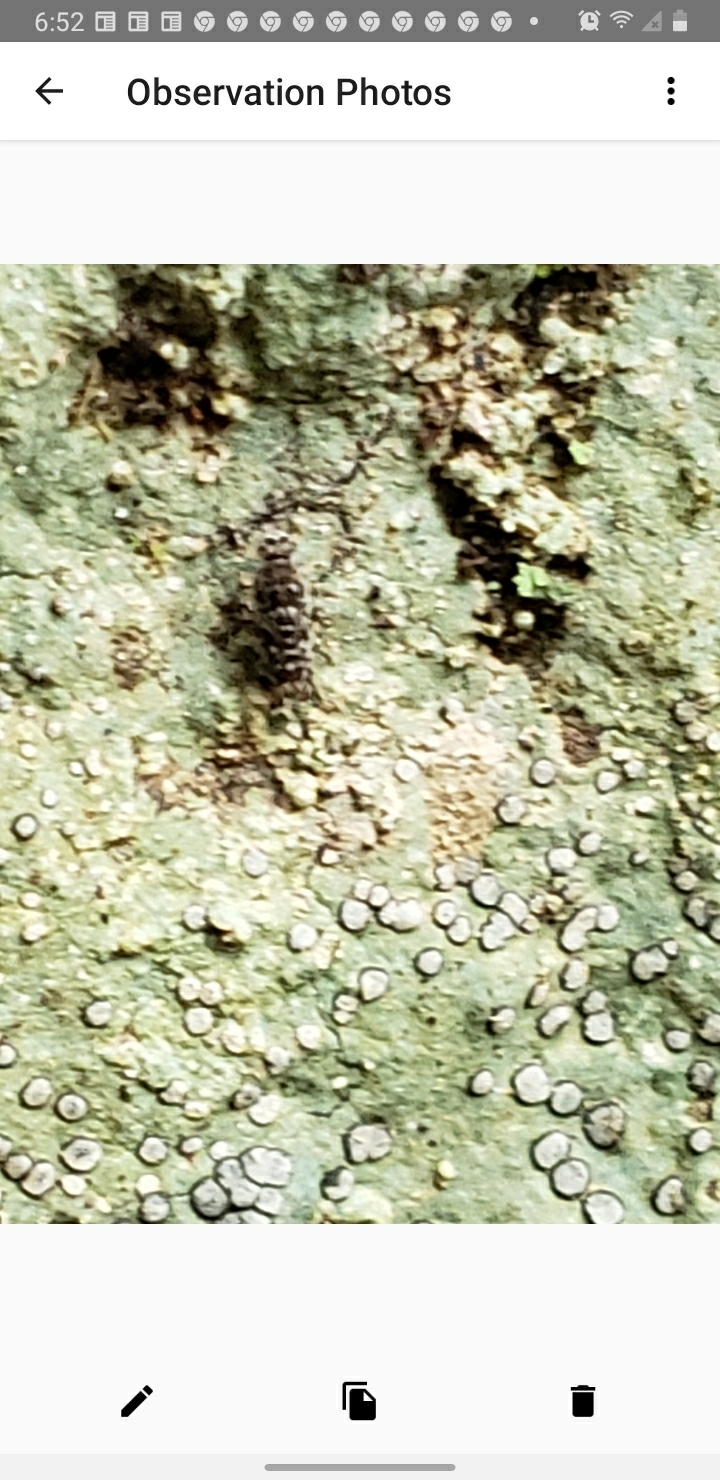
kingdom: Fungi
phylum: Ascomycota
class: Lecanoromycetes
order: Lecideales
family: Lecideaceae
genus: Porpidia
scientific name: Porpidia albocaerulescens
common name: Smokey-eyed boulder lichen
